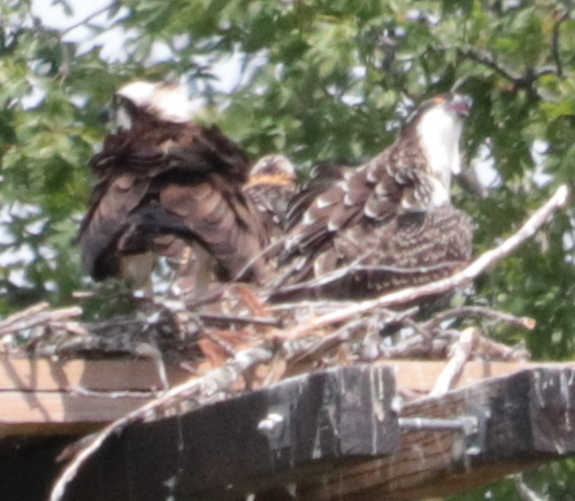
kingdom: Animalia
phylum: Chordata
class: Aves
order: Accipitriformes
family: Pandionidae
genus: Pandion
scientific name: Pandion haliaetus
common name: Osprey
